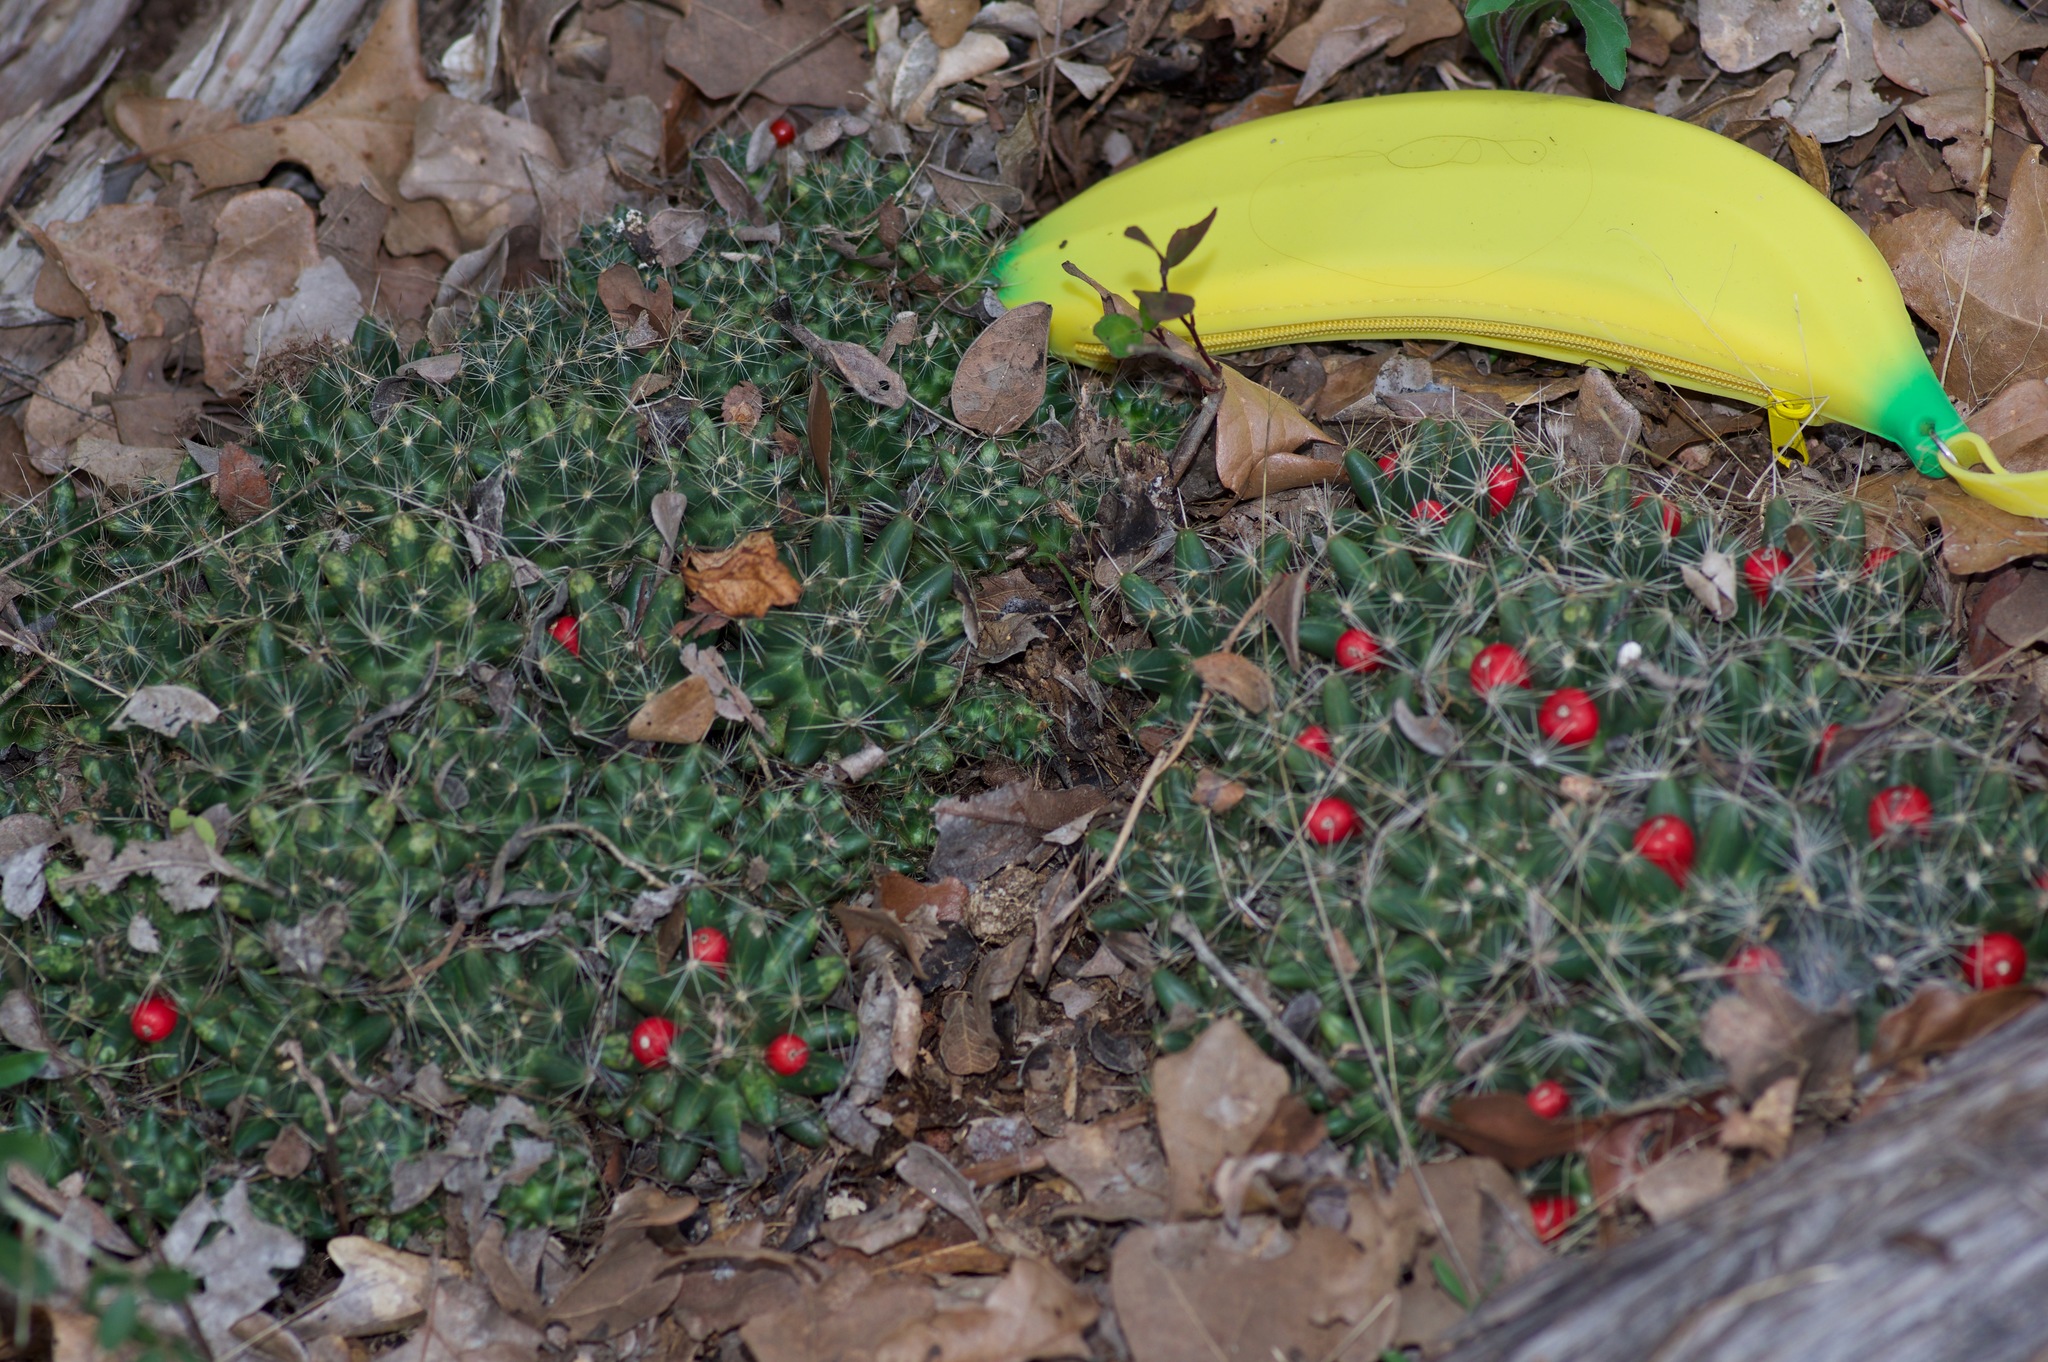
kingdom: Plantae
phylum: Tracheophyta
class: Magnoliopsida
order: Caryophyllales
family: Cactaceae
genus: Pelecyphora
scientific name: Pelecyphora missouriensis
